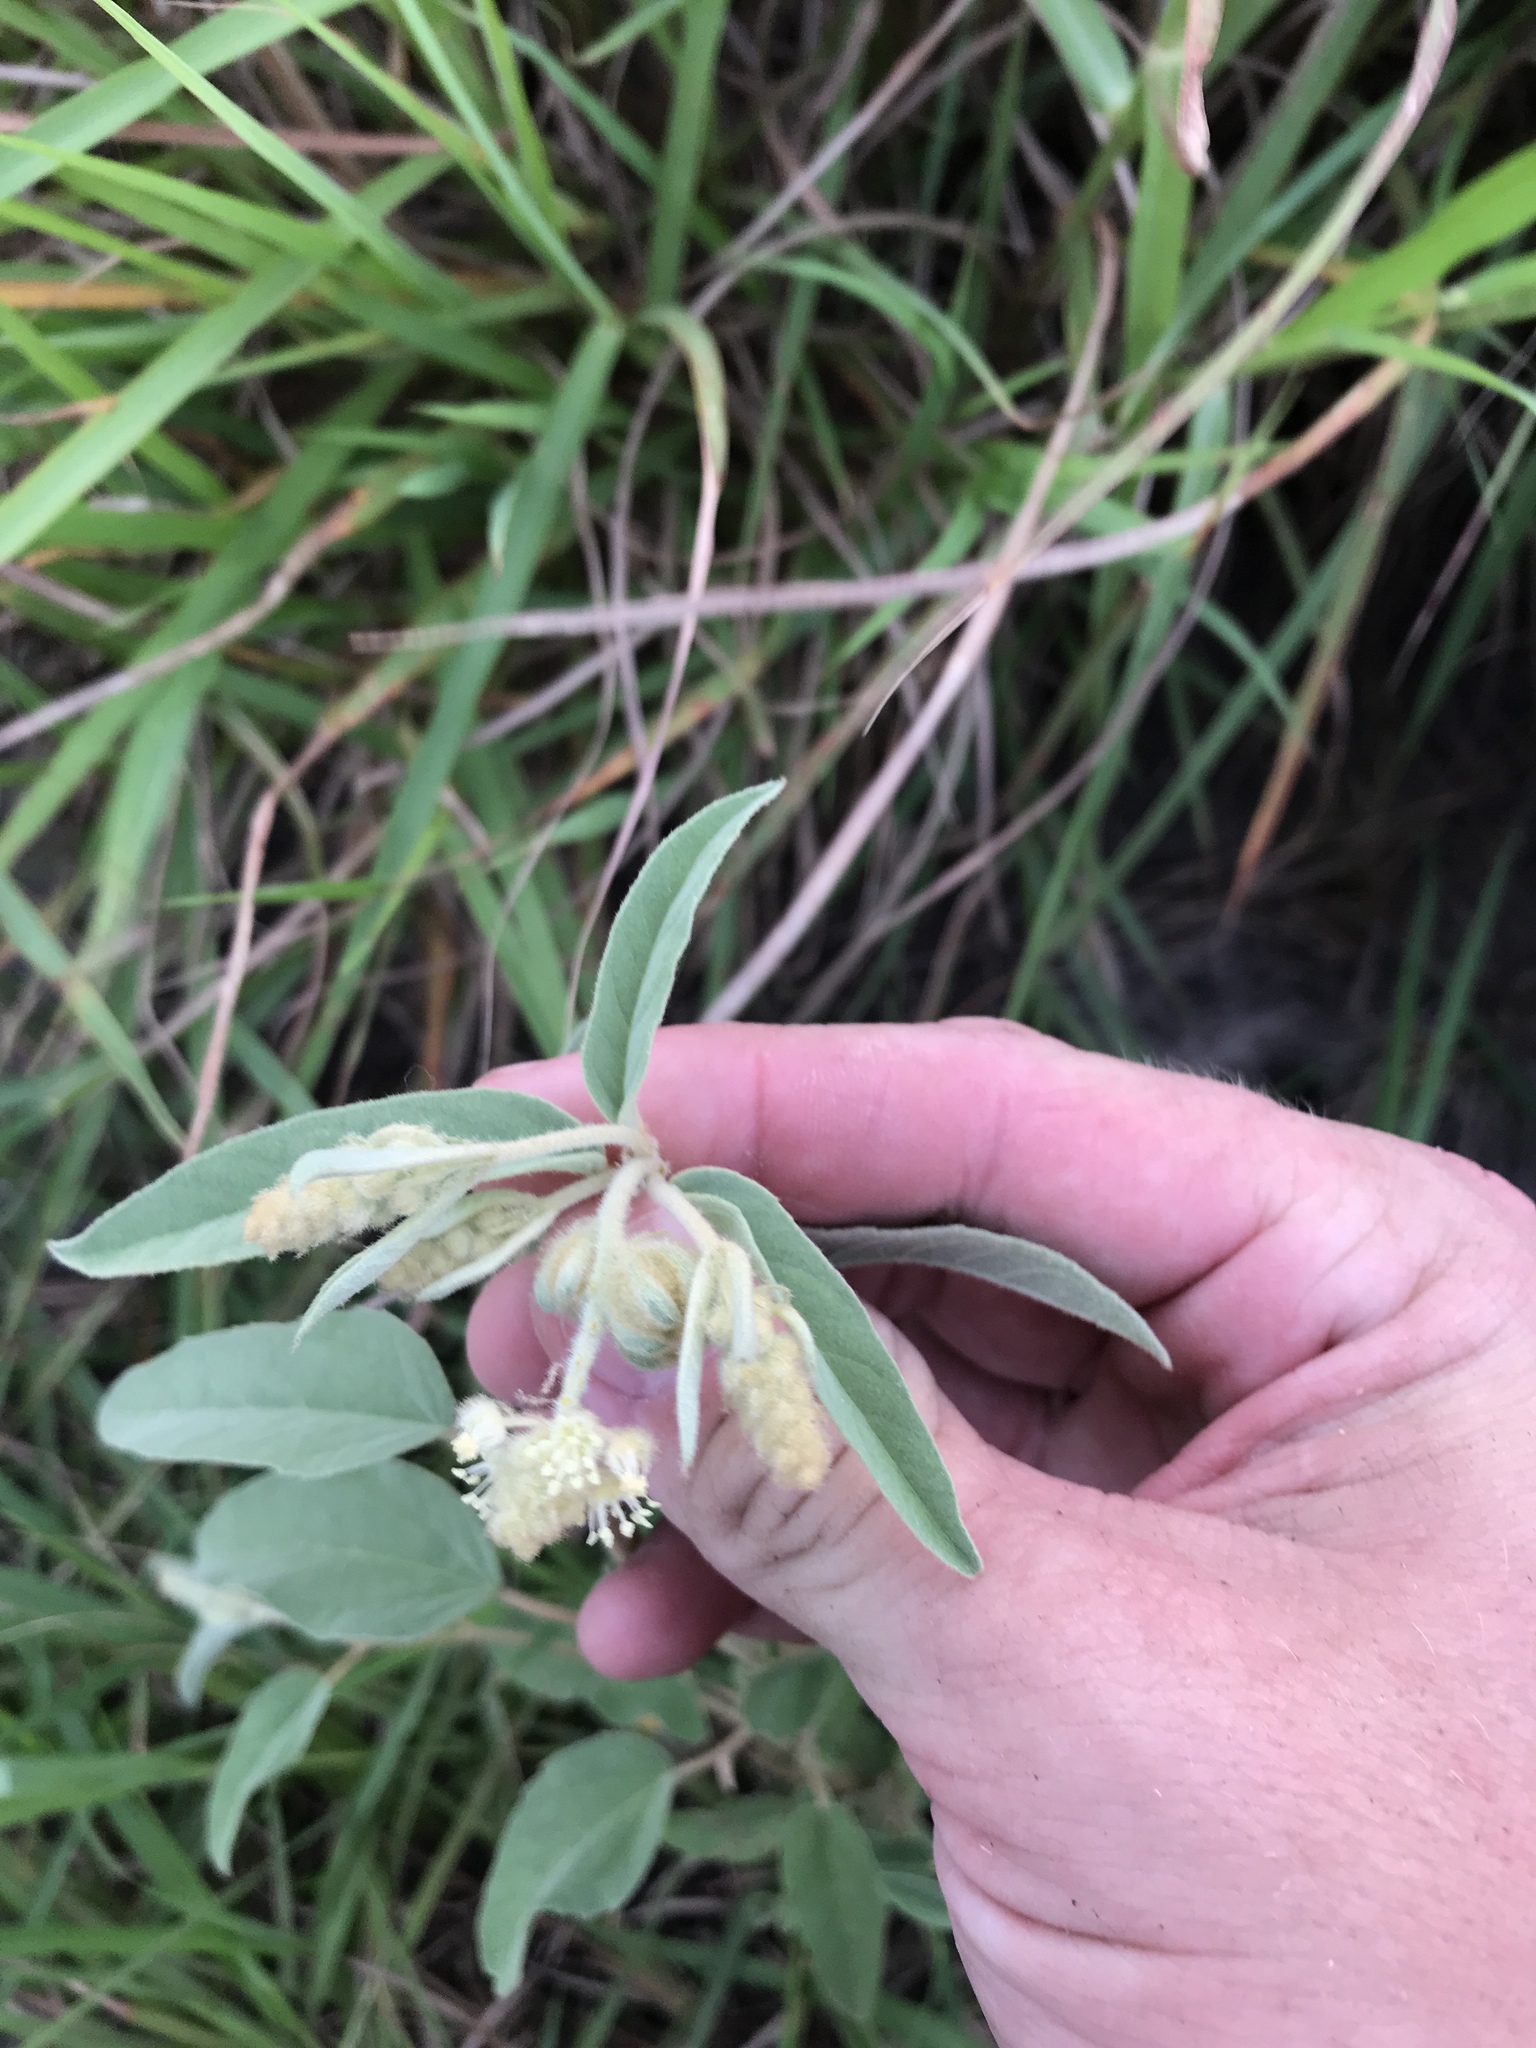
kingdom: Plantae
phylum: Tracheophyta
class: Magnoliopsida
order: Malpighiales
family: Euphorbiaceae
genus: Croton
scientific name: Croton lindheimeri
